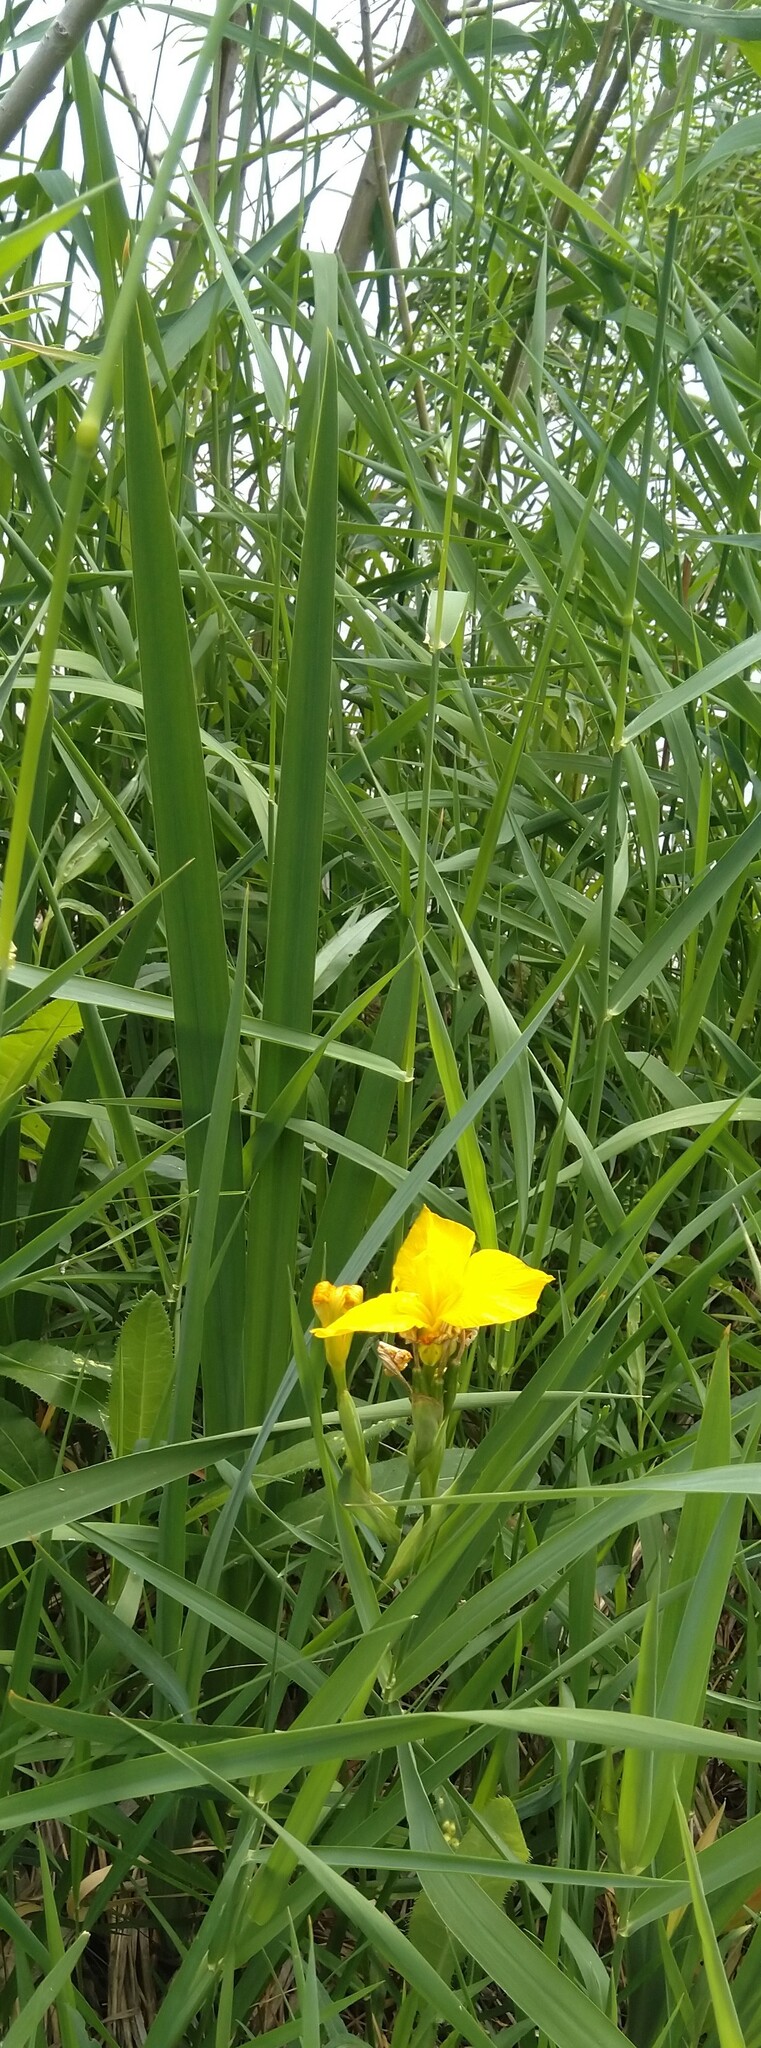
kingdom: Plantae
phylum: Tracheophyta
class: Liliopsida
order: Asparagales
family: Iridaceae
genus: Iris
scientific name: Iris pseudacorus
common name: Yellow flag
